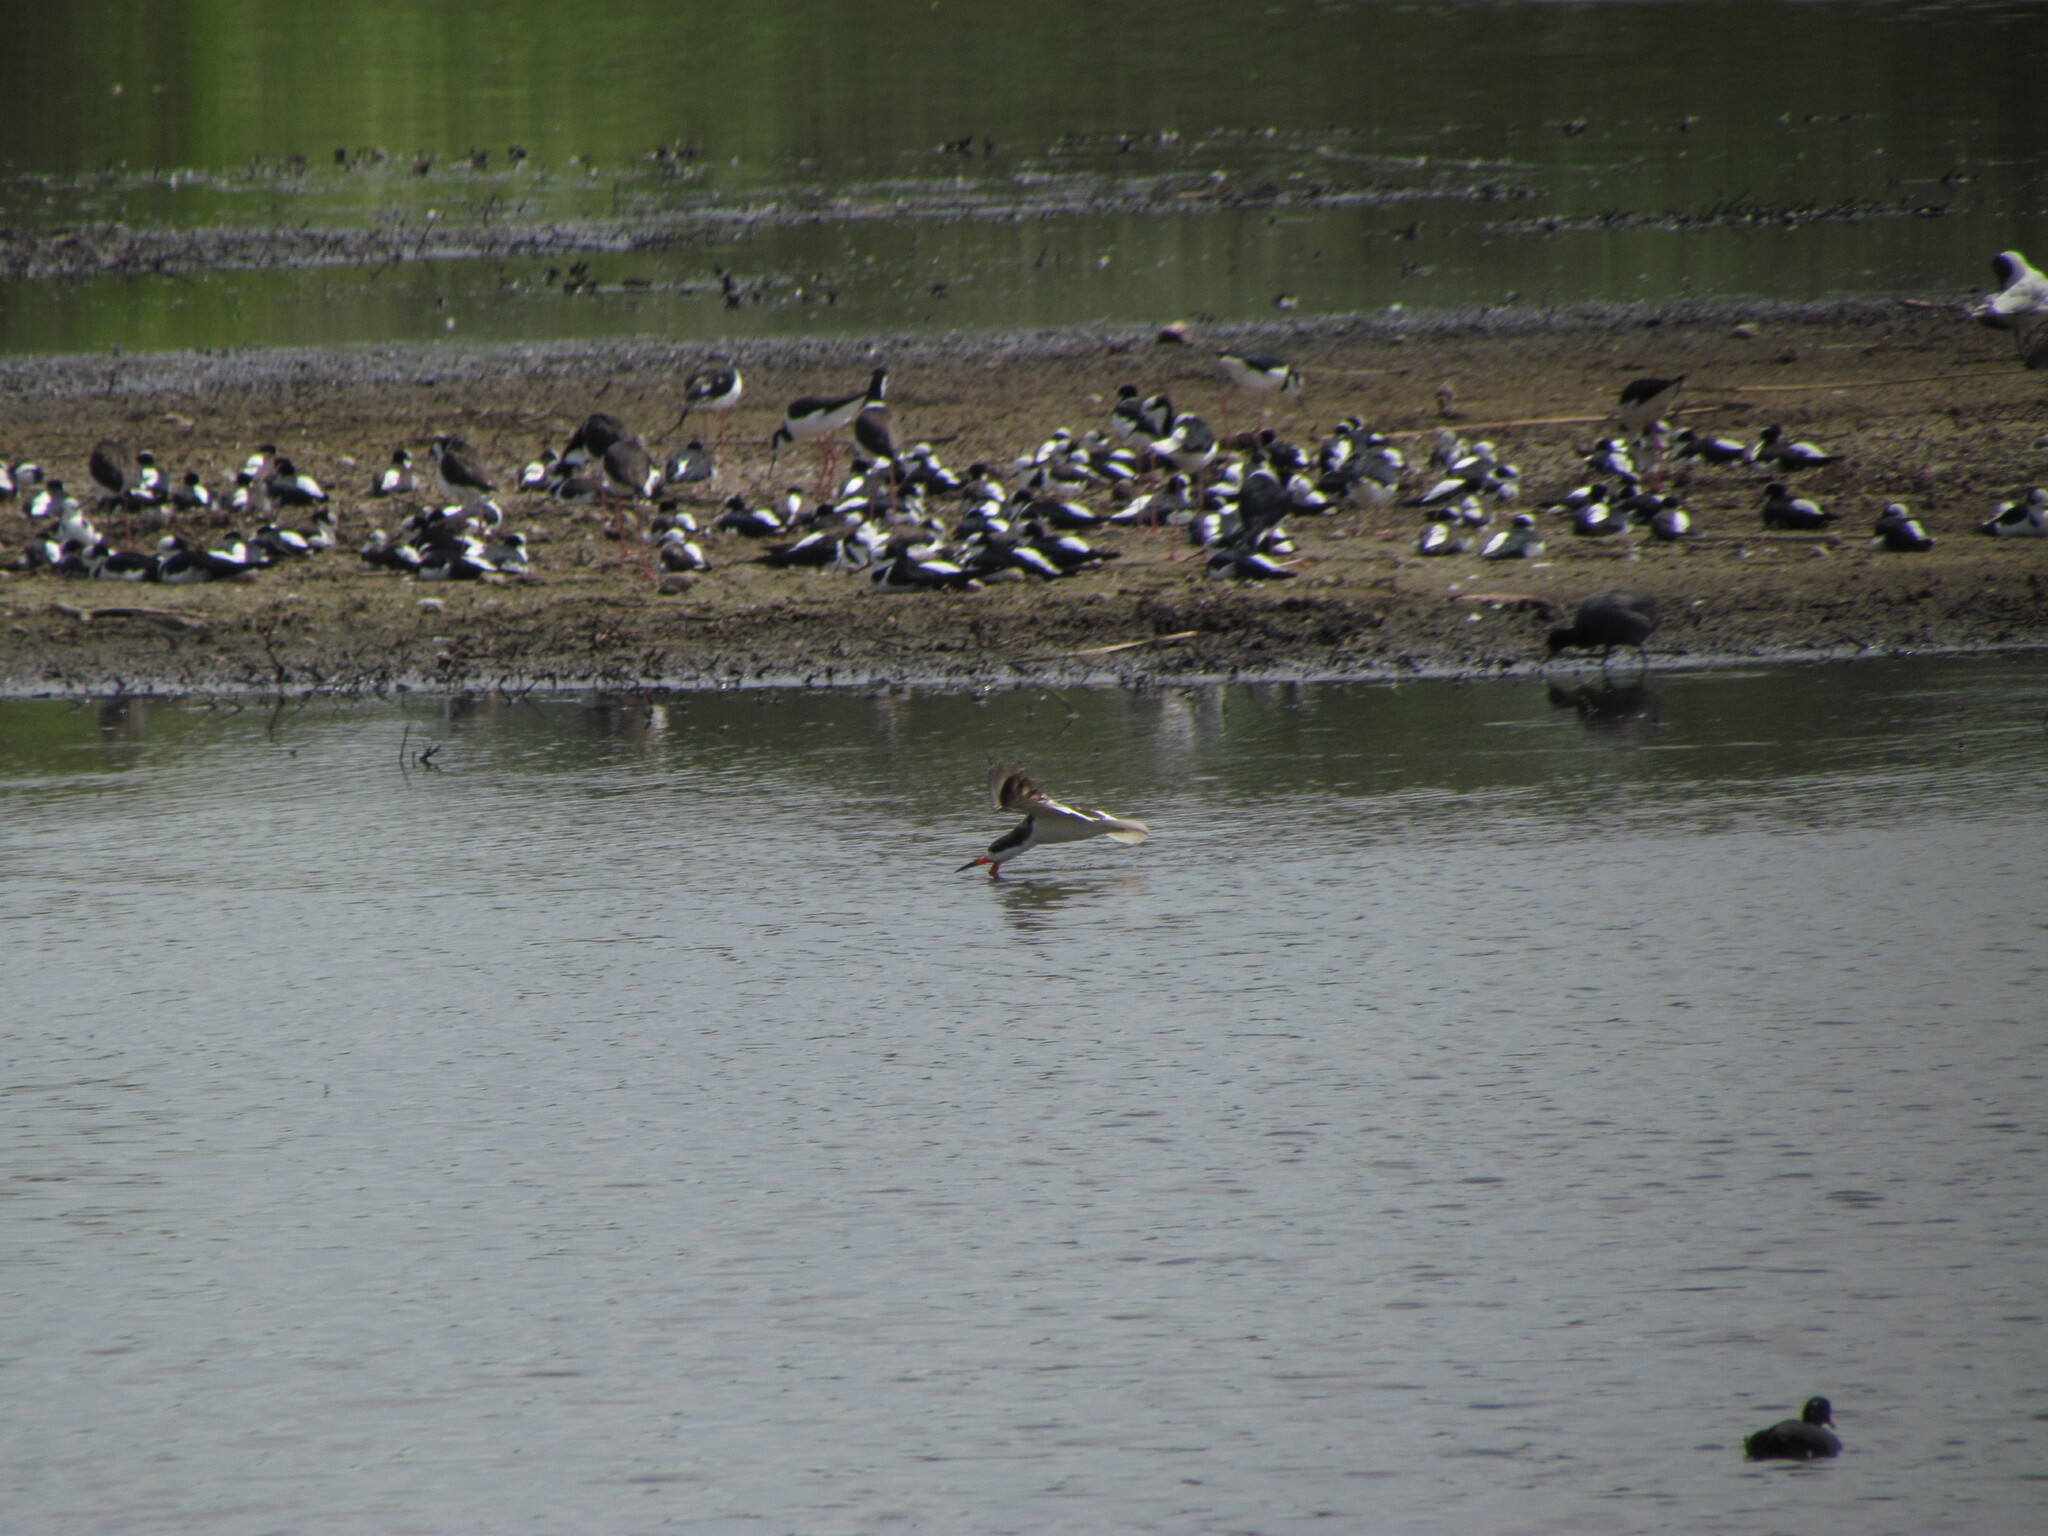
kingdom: Animalia
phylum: Chordata
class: Aves
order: Charadriiformes
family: Laridae
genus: Rynchops
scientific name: Rynchops niger
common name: Black skimmer
